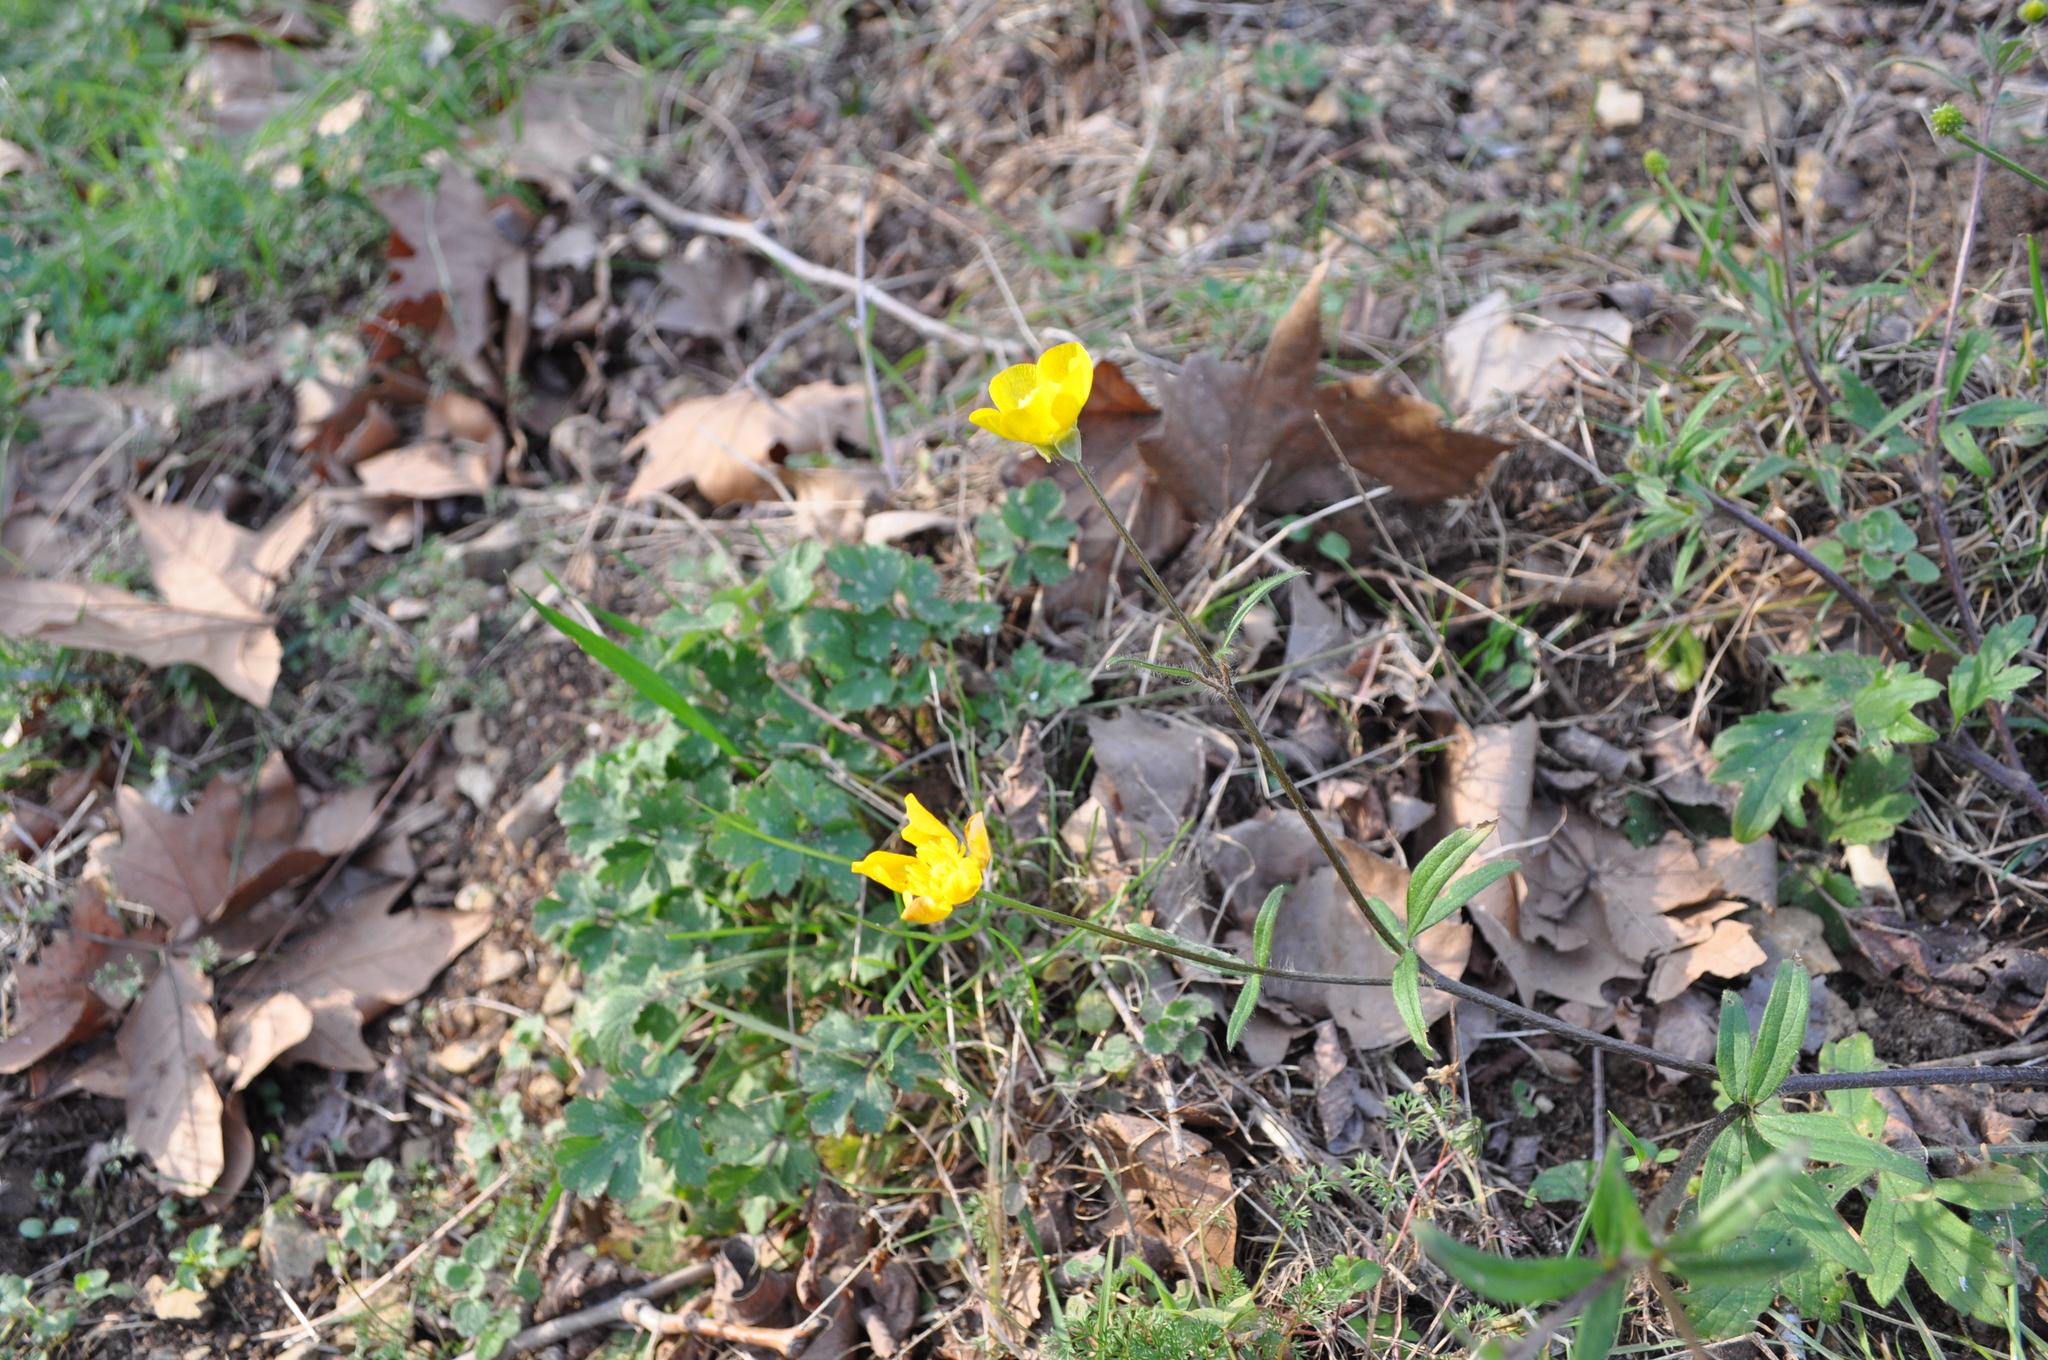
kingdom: Plantae
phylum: Tracheophyta
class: Magnoliopsida
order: Ranunculales
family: Ranunculaceae
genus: Ranunculus
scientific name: Ranunculus bulbosus
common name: Bulbous buttercup
